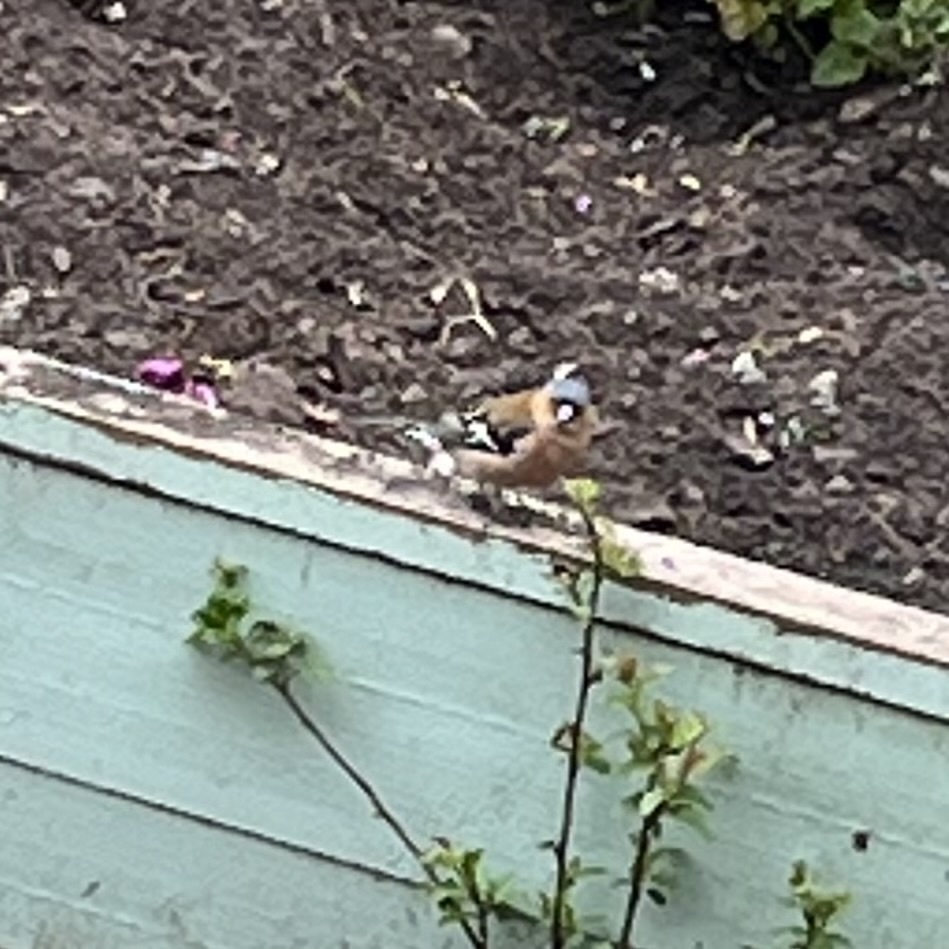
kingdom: Animalia
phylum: Chordata
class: Aves
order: Passeriformes
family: Fringillidae
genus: Fringilla
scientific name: Fringilla coelebs
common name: Common chaffinch
